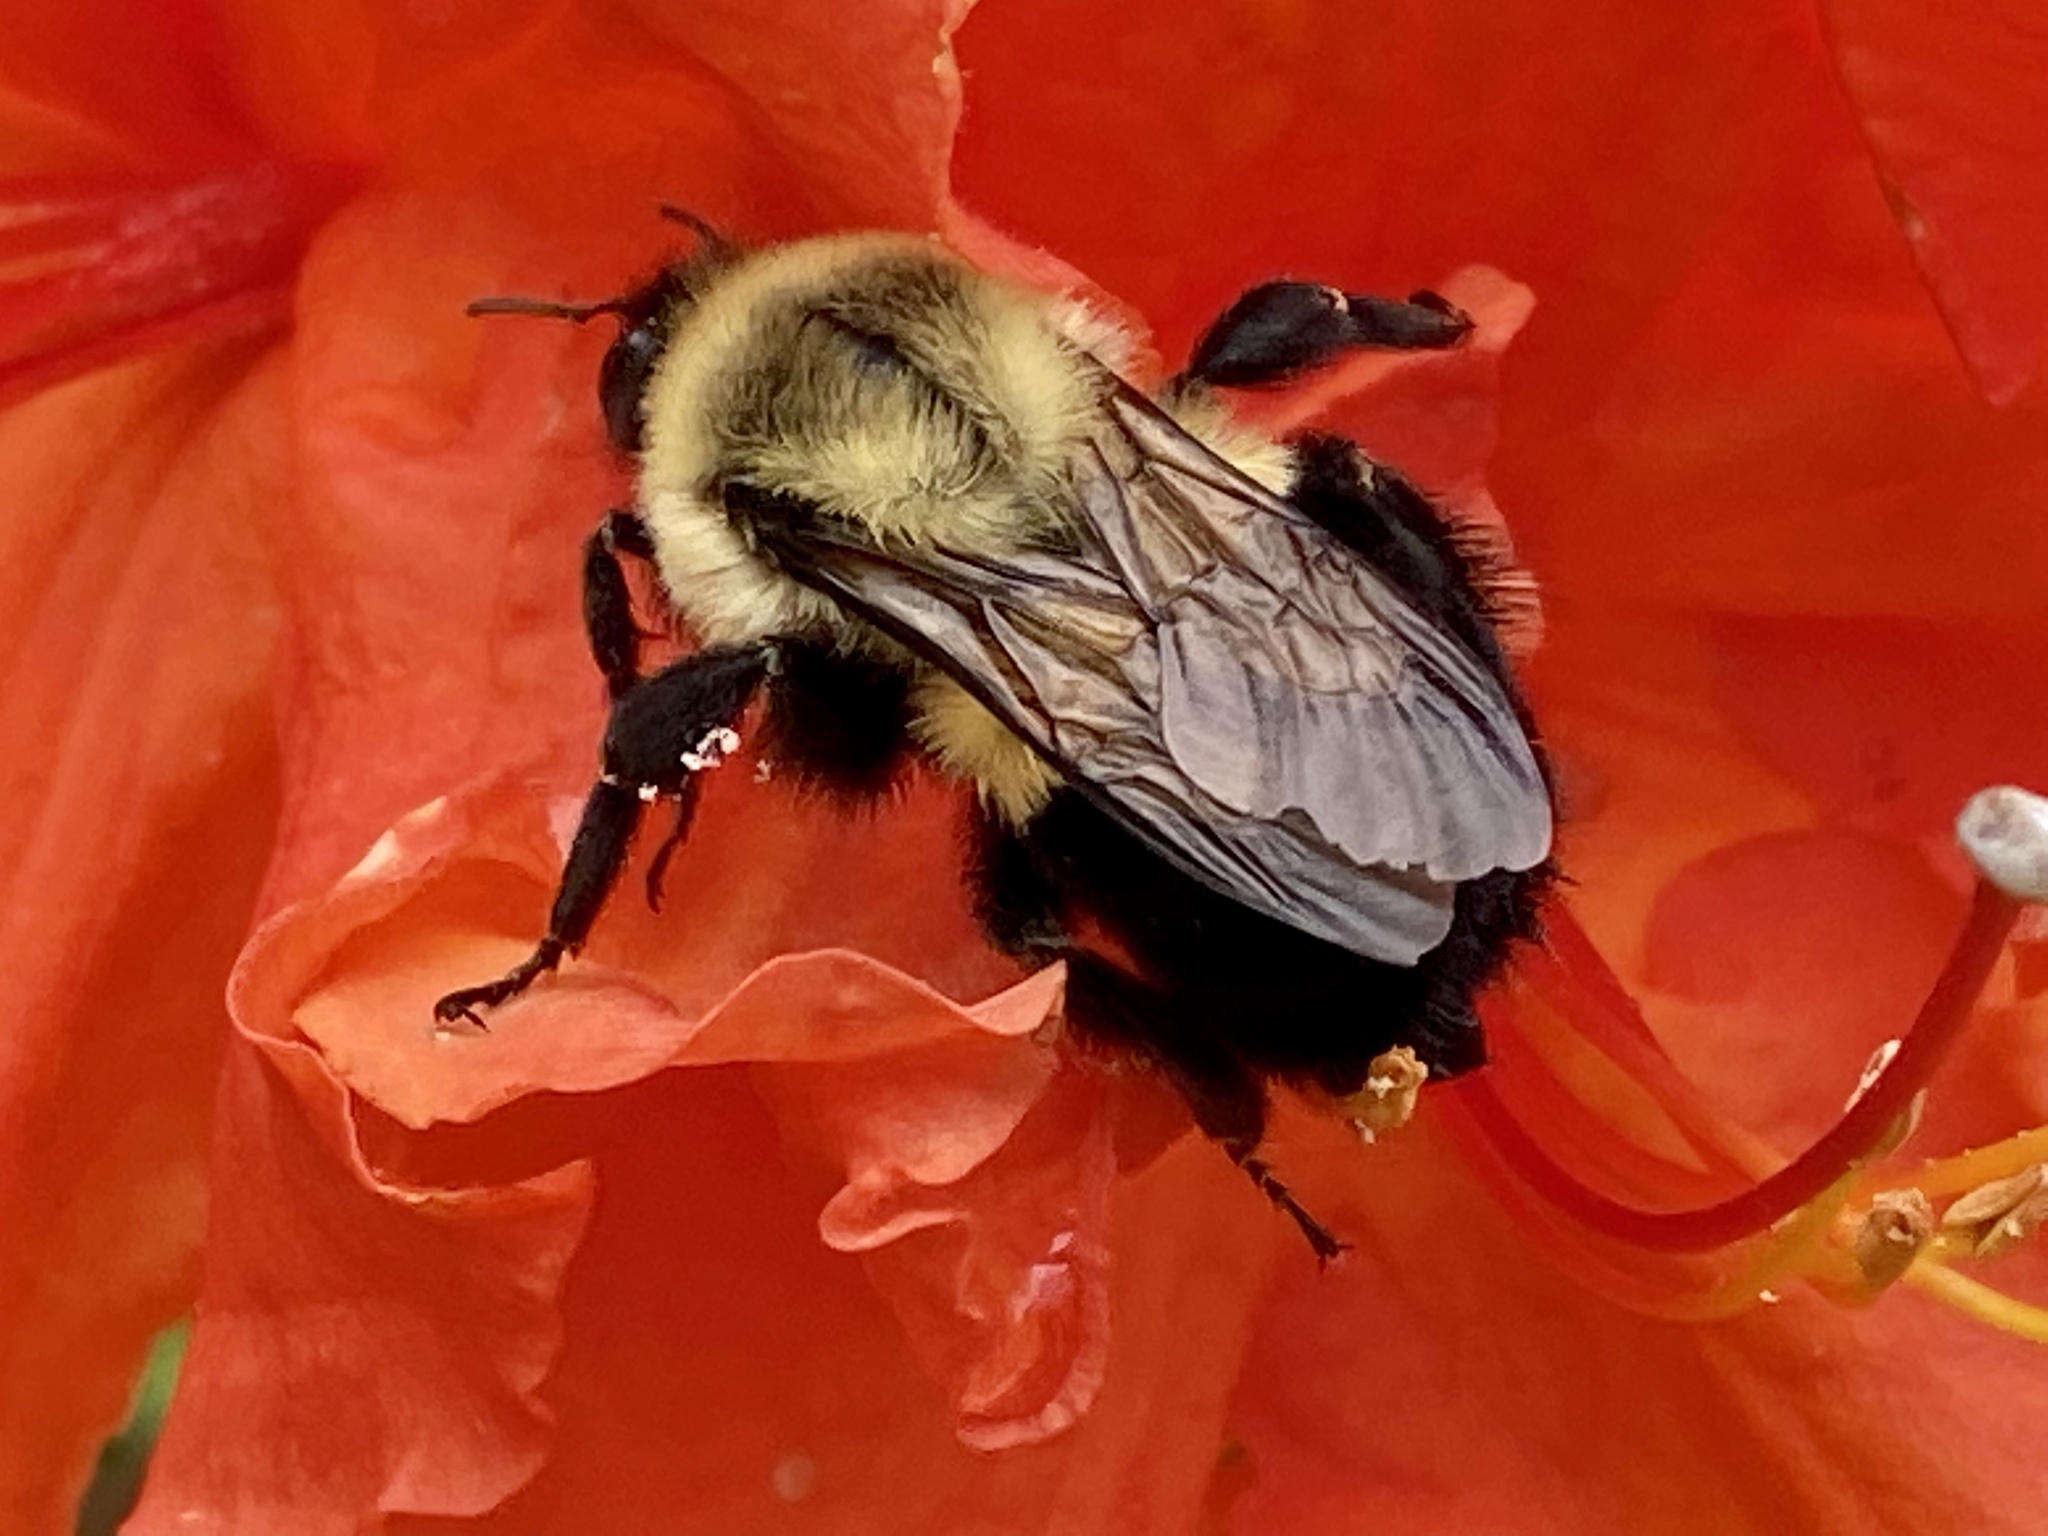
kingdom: Animalia
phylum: Arthropoda
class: Insecta
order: Hymenoptera
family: Apidae
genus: Bombus
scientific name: Bombus impatiens
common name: Common eastern bumble bee
